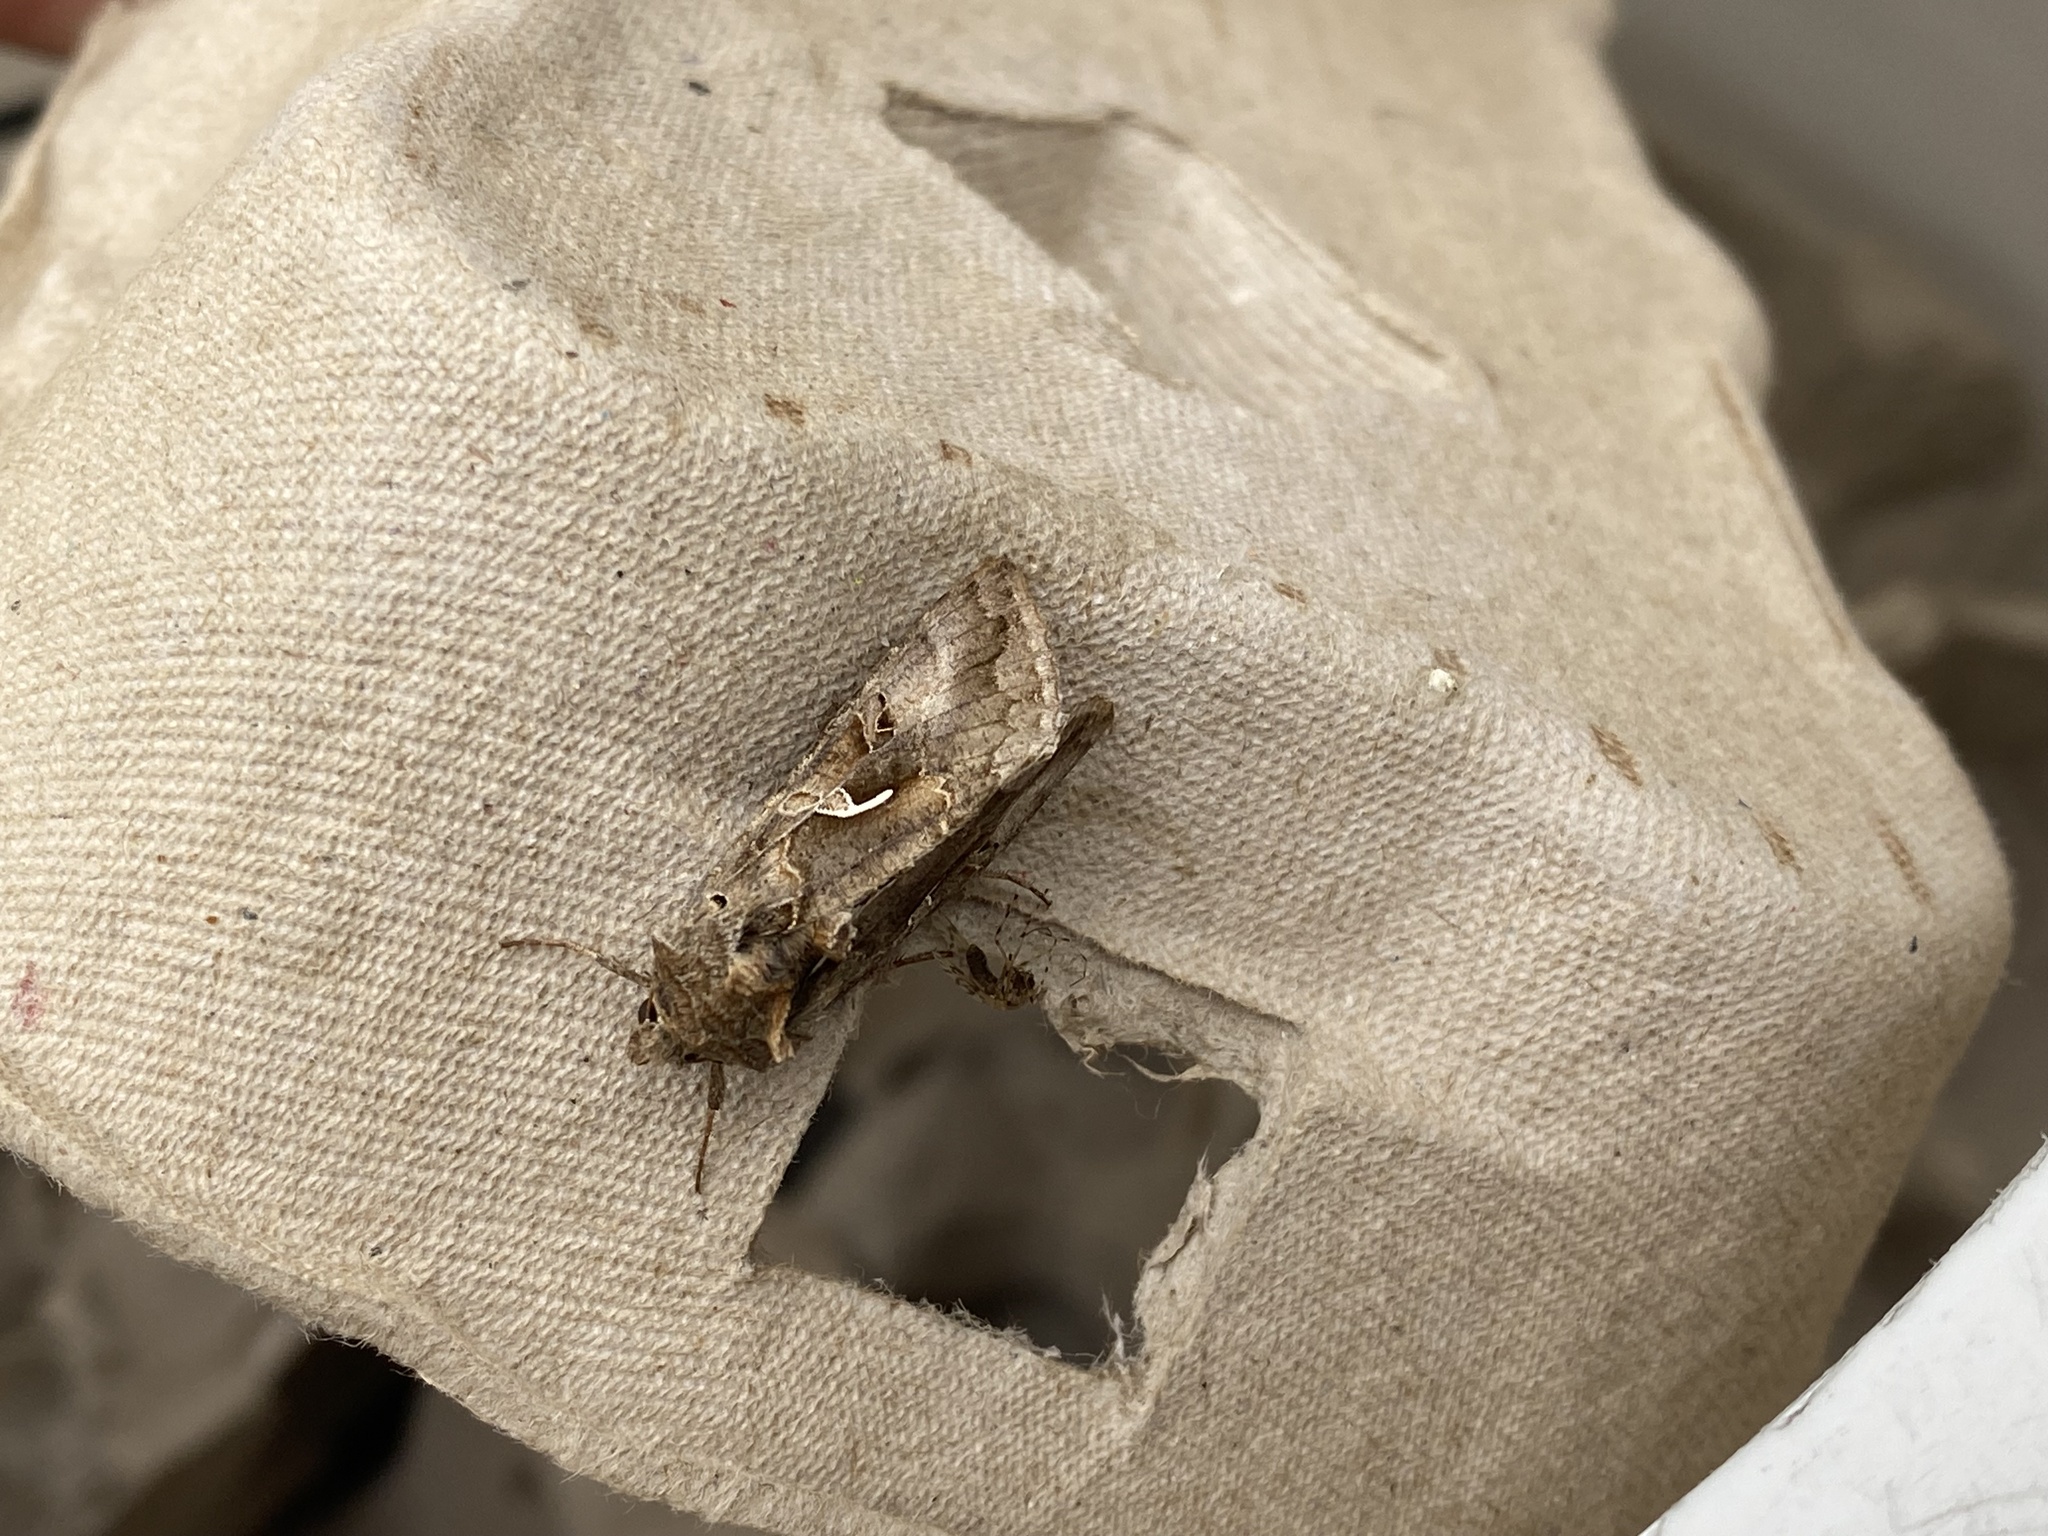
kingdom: Animalia
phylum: Arthropoda
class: Insecta
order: Lepidoptera
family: Noctuidae
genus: Autographa
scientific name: Autographa gamma
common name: Silver y
